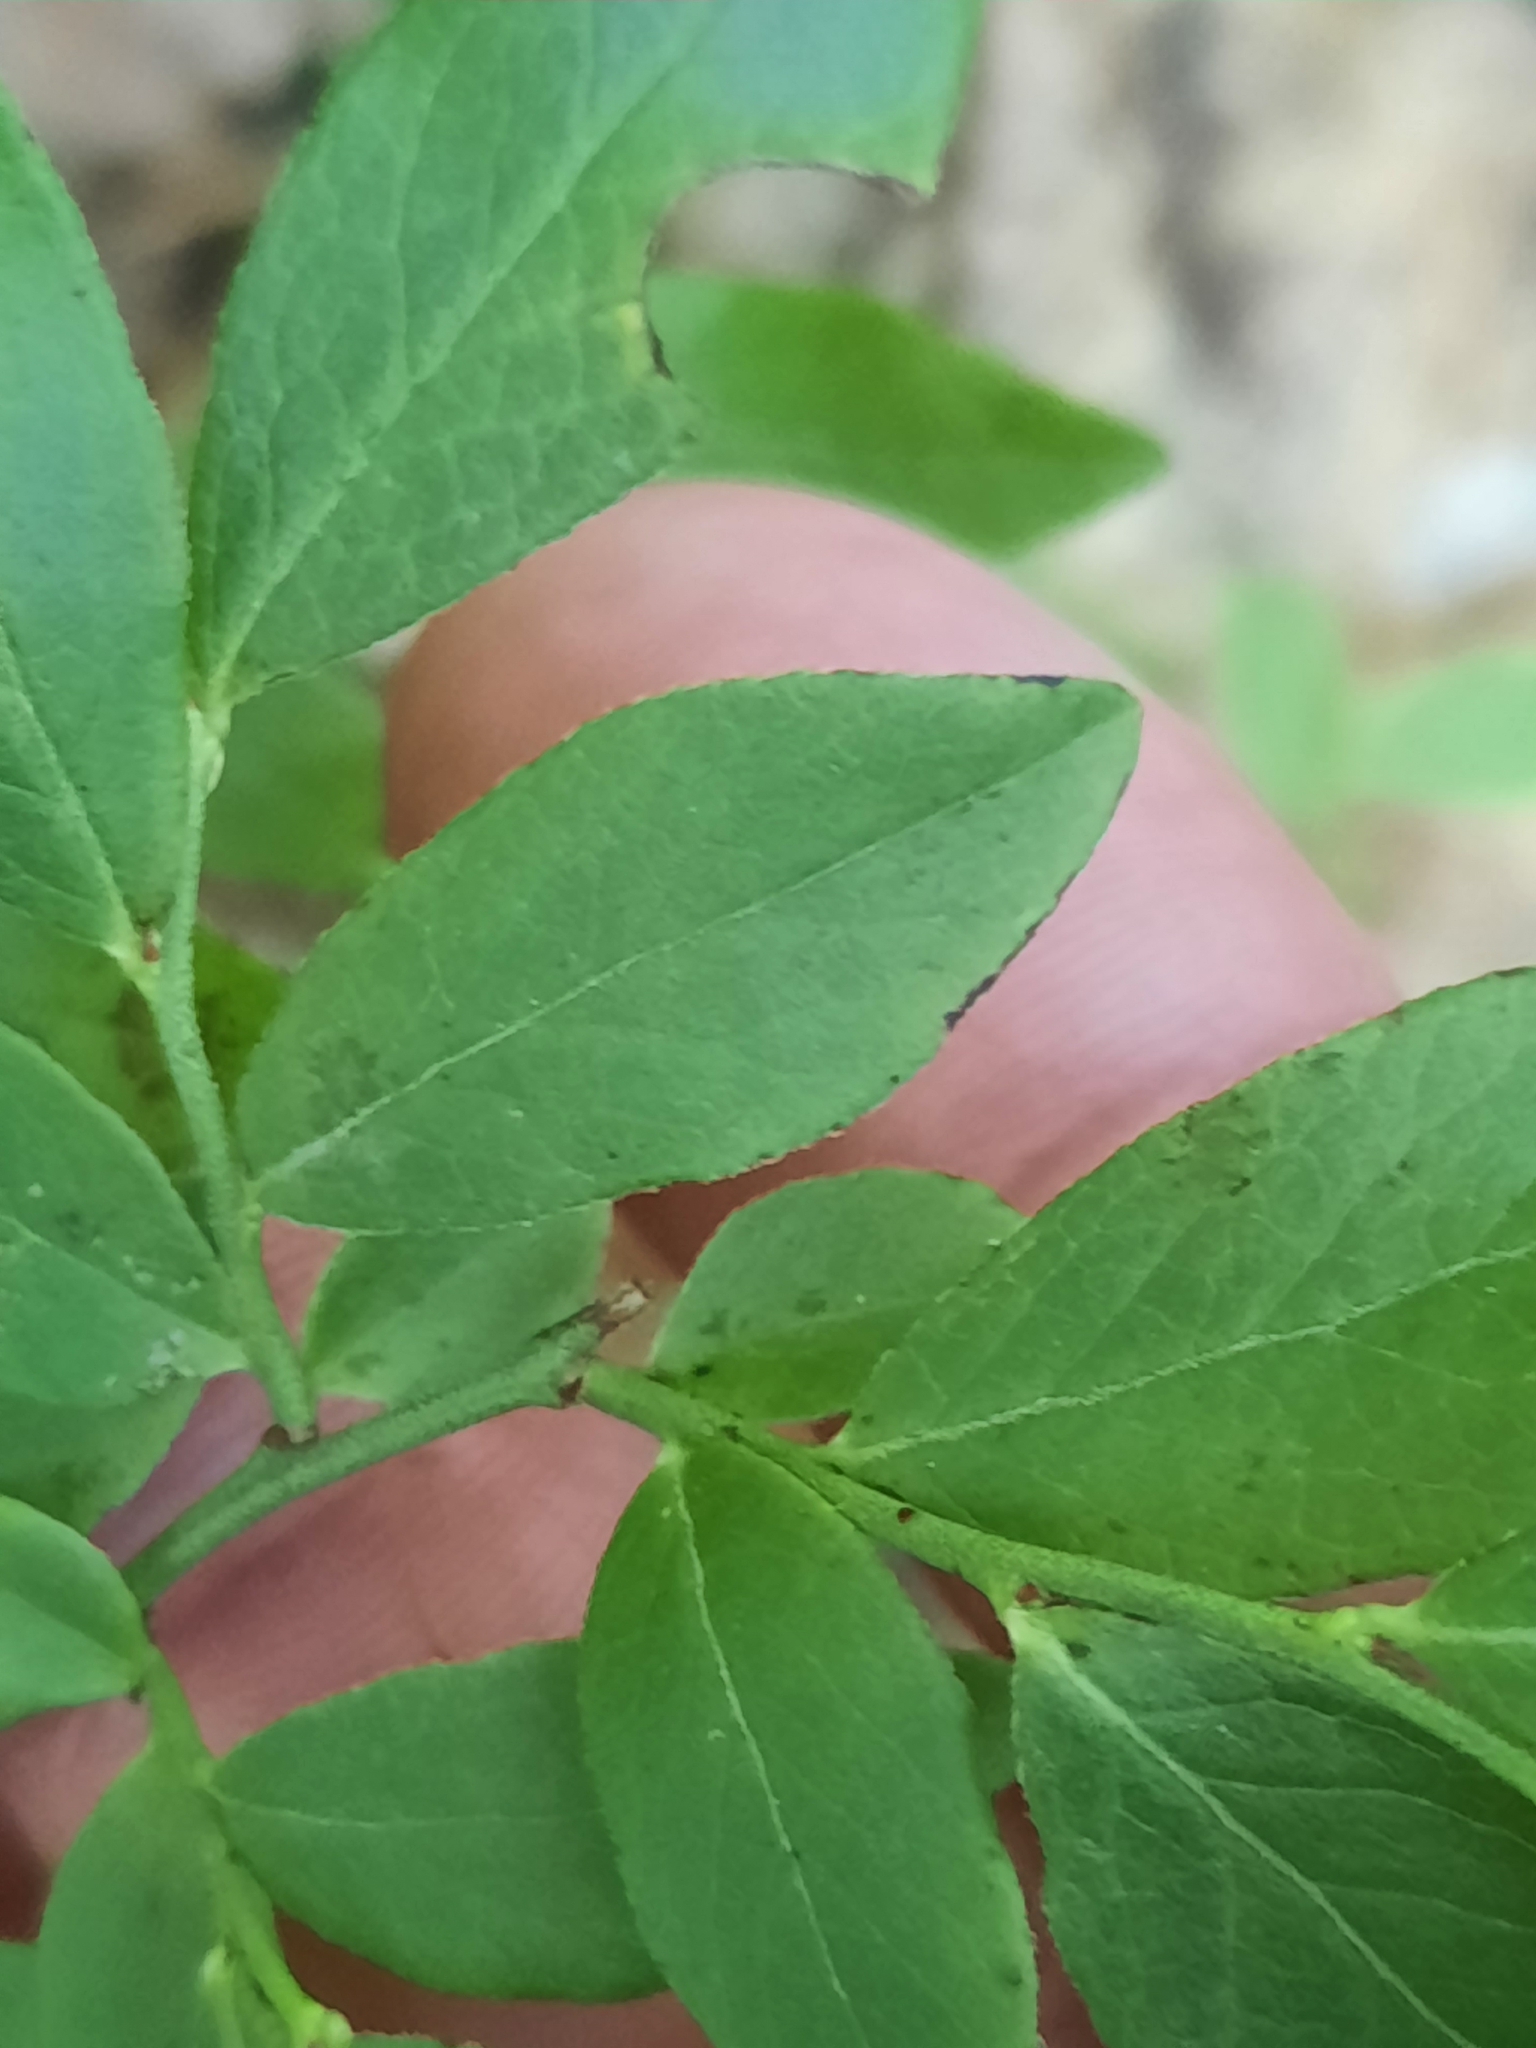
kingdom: Plantae
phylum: Tracheophyta
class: Magnoliopsida
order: Ericales
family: Ericaceae
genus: Vaccinium
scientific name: Vaccinium angustifolium
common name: Early lowbush blueberry
